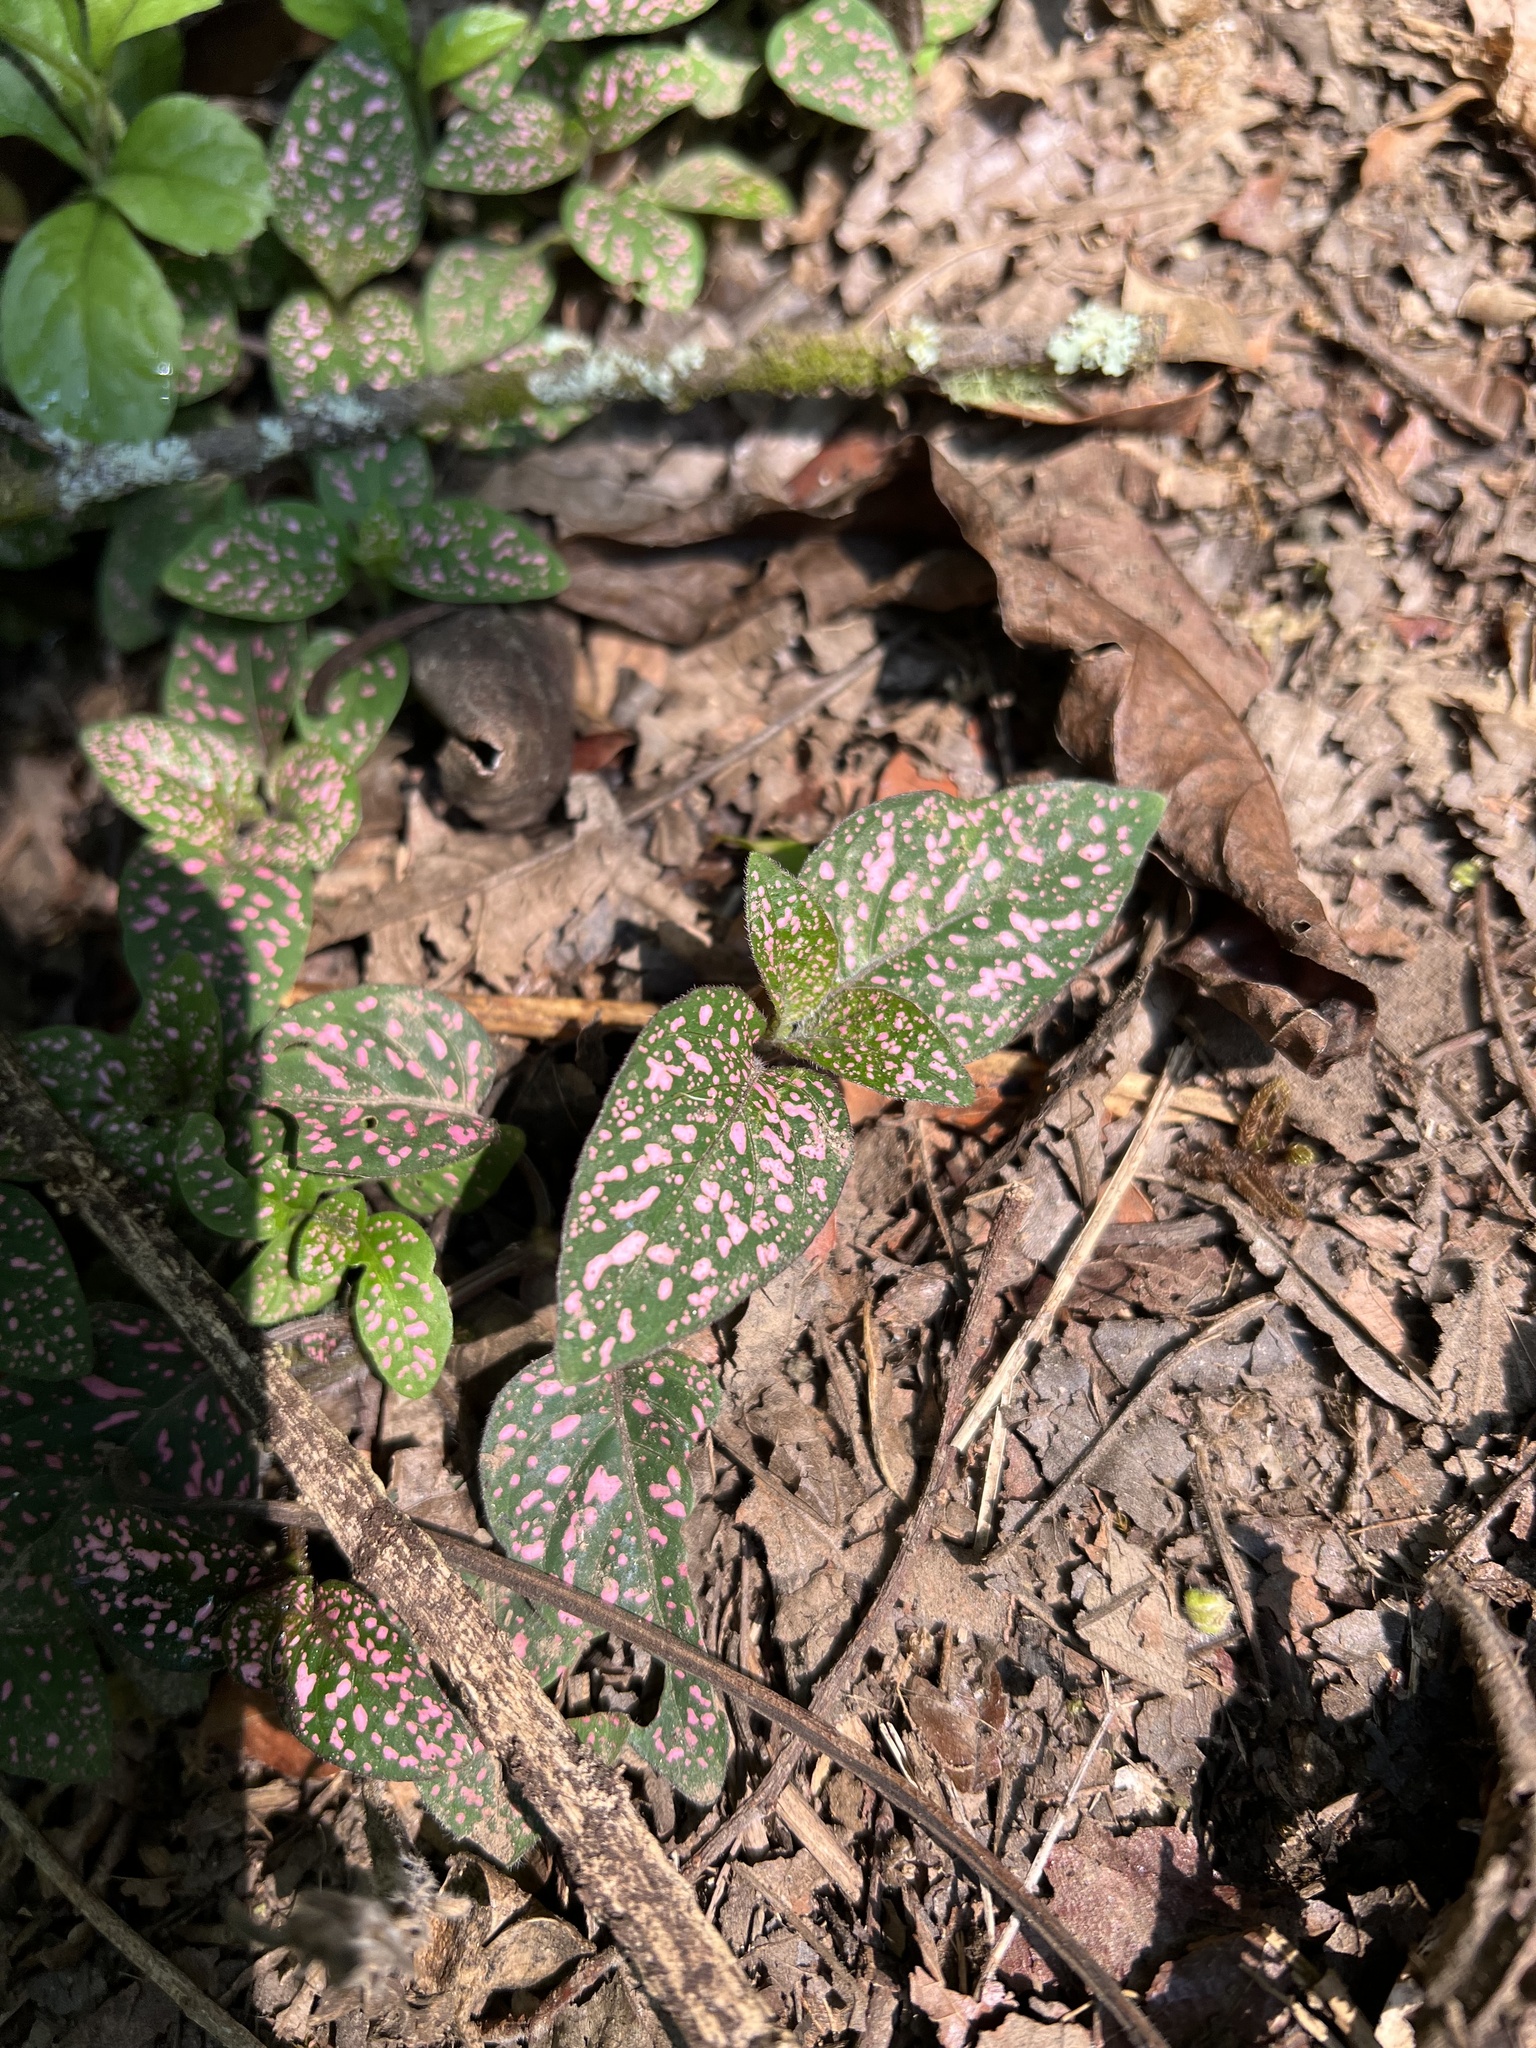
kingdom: Plantae
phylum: Tracheophyta
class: Magnoliopsida
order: Lamiales
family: Acanthaceae
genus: Hypoestes
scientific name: Hypoestes phyllostachya
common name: Polkadot-plant
